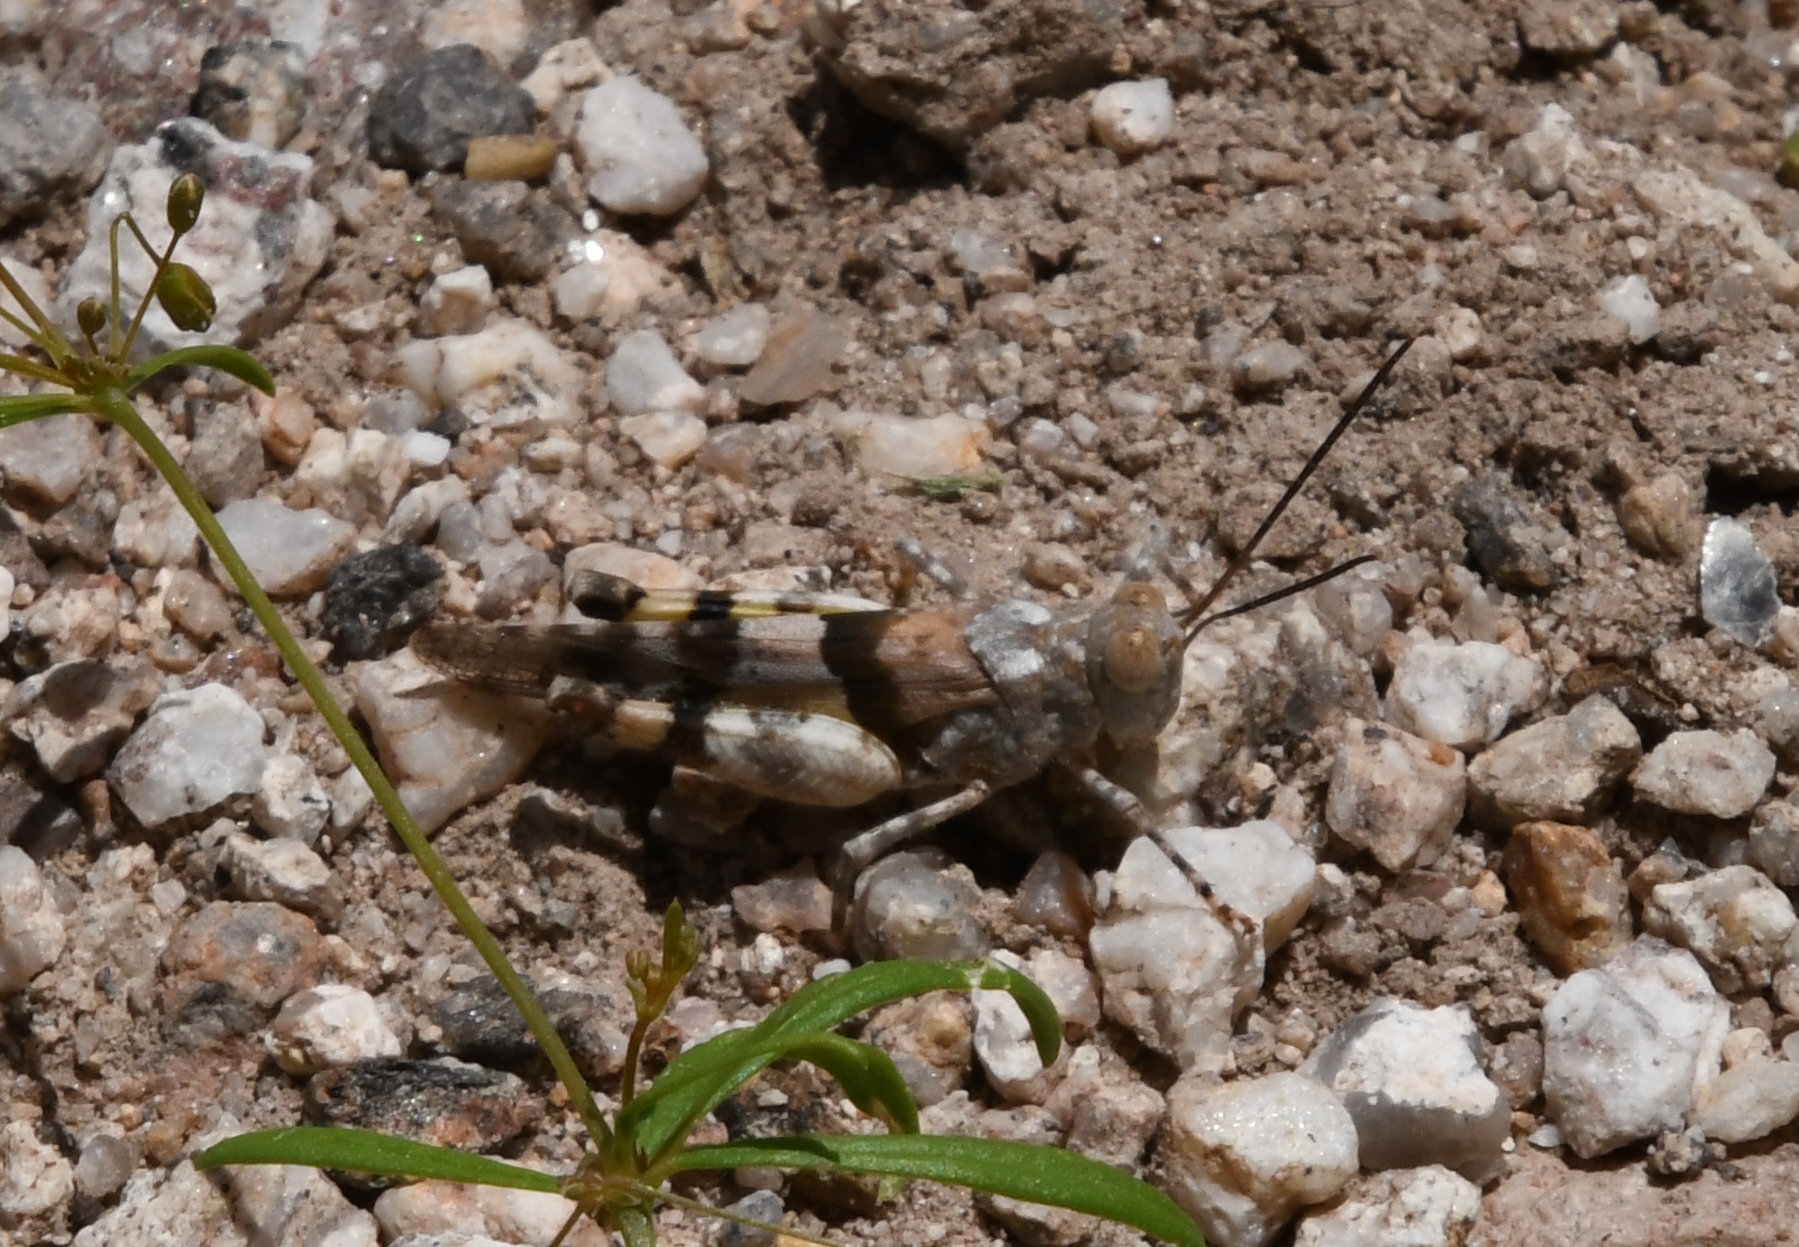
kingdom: Animalia
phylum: Arthropoda
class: Insecta
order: Orthoptera
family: Acrididae
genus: Heliastus
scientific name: Heliastus benjamini
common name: Arroyo grasshopper
